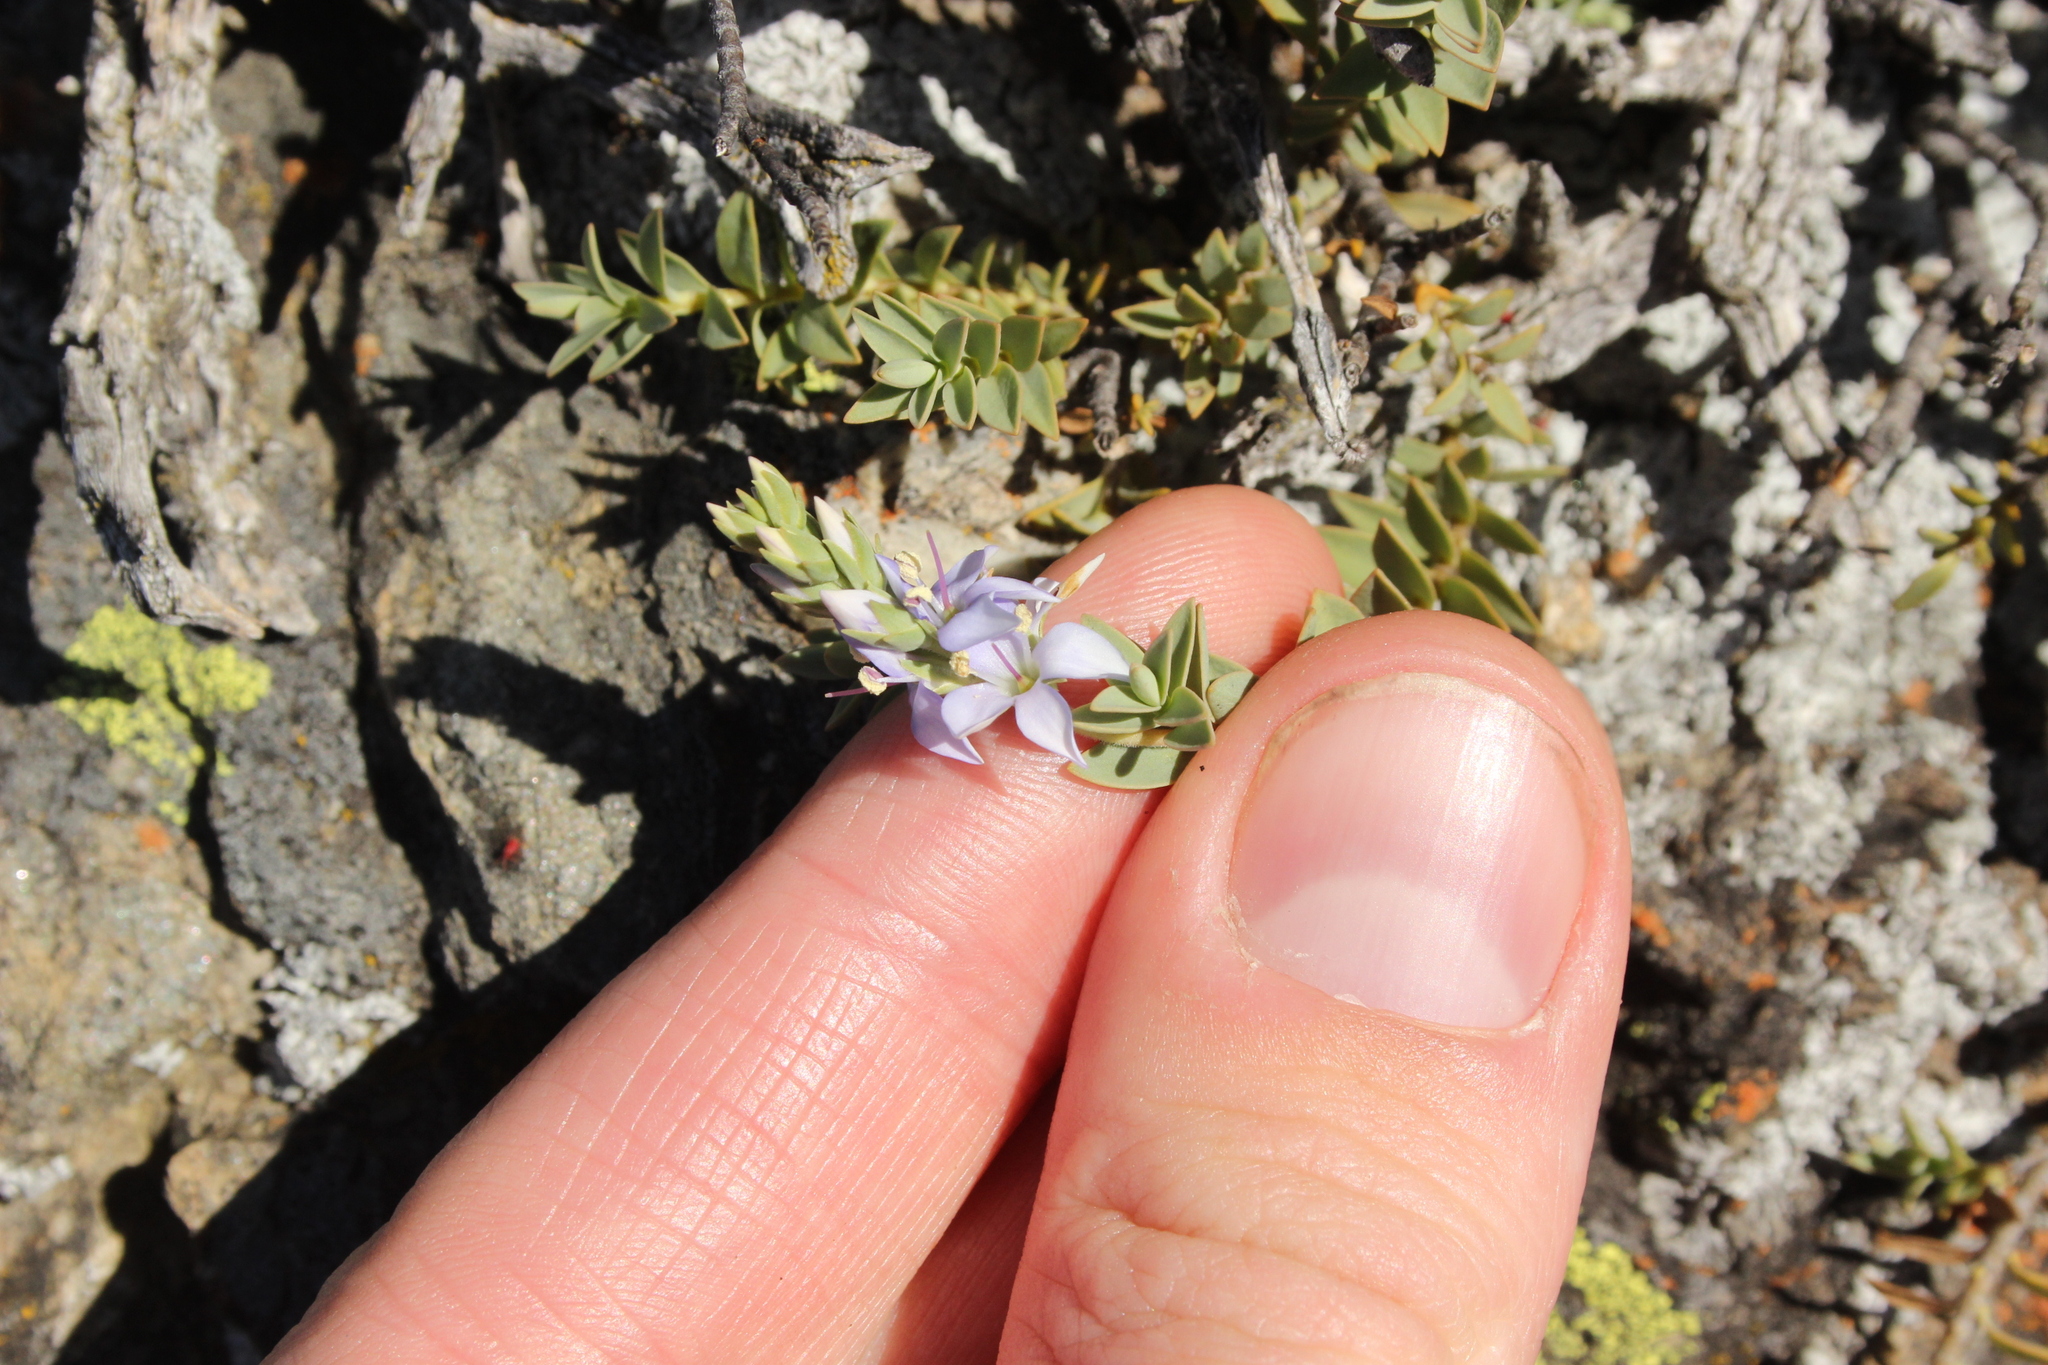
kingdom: Plantae
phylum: Tracheophyta
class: Magnoliopsida
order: Lamiales
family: Plantaginaceae
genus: Veronica
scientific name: Veronica pimeleoides
